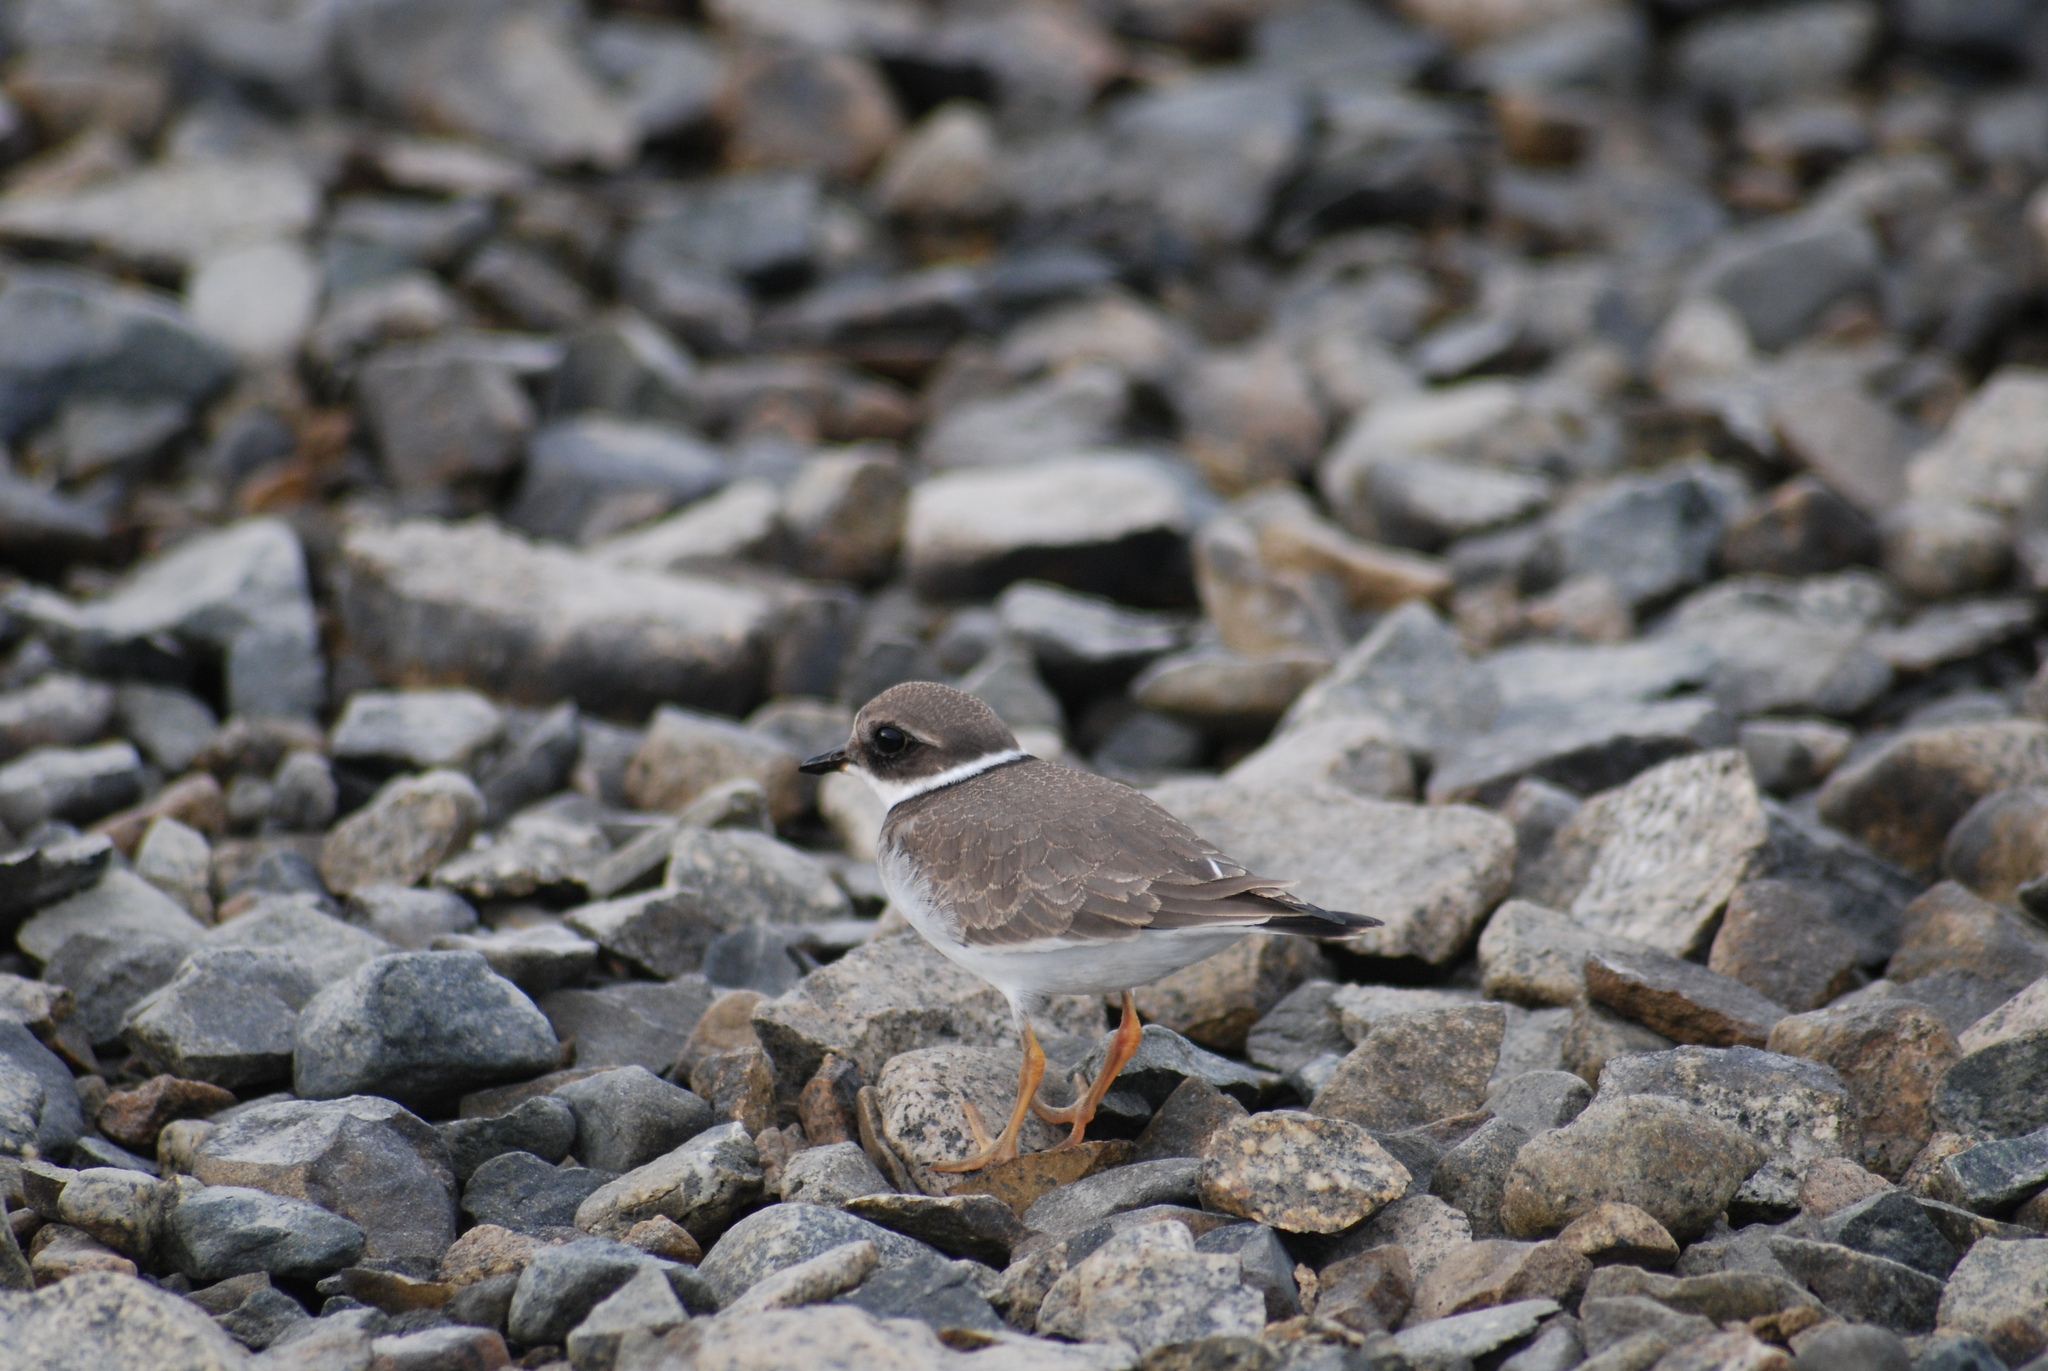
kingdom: Animalia
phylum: Chordata
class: Aves
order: Charadriiformes
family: Charadriidae
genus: Charadrius
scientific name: Charadrius hiaticula
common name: Common ringed plover
